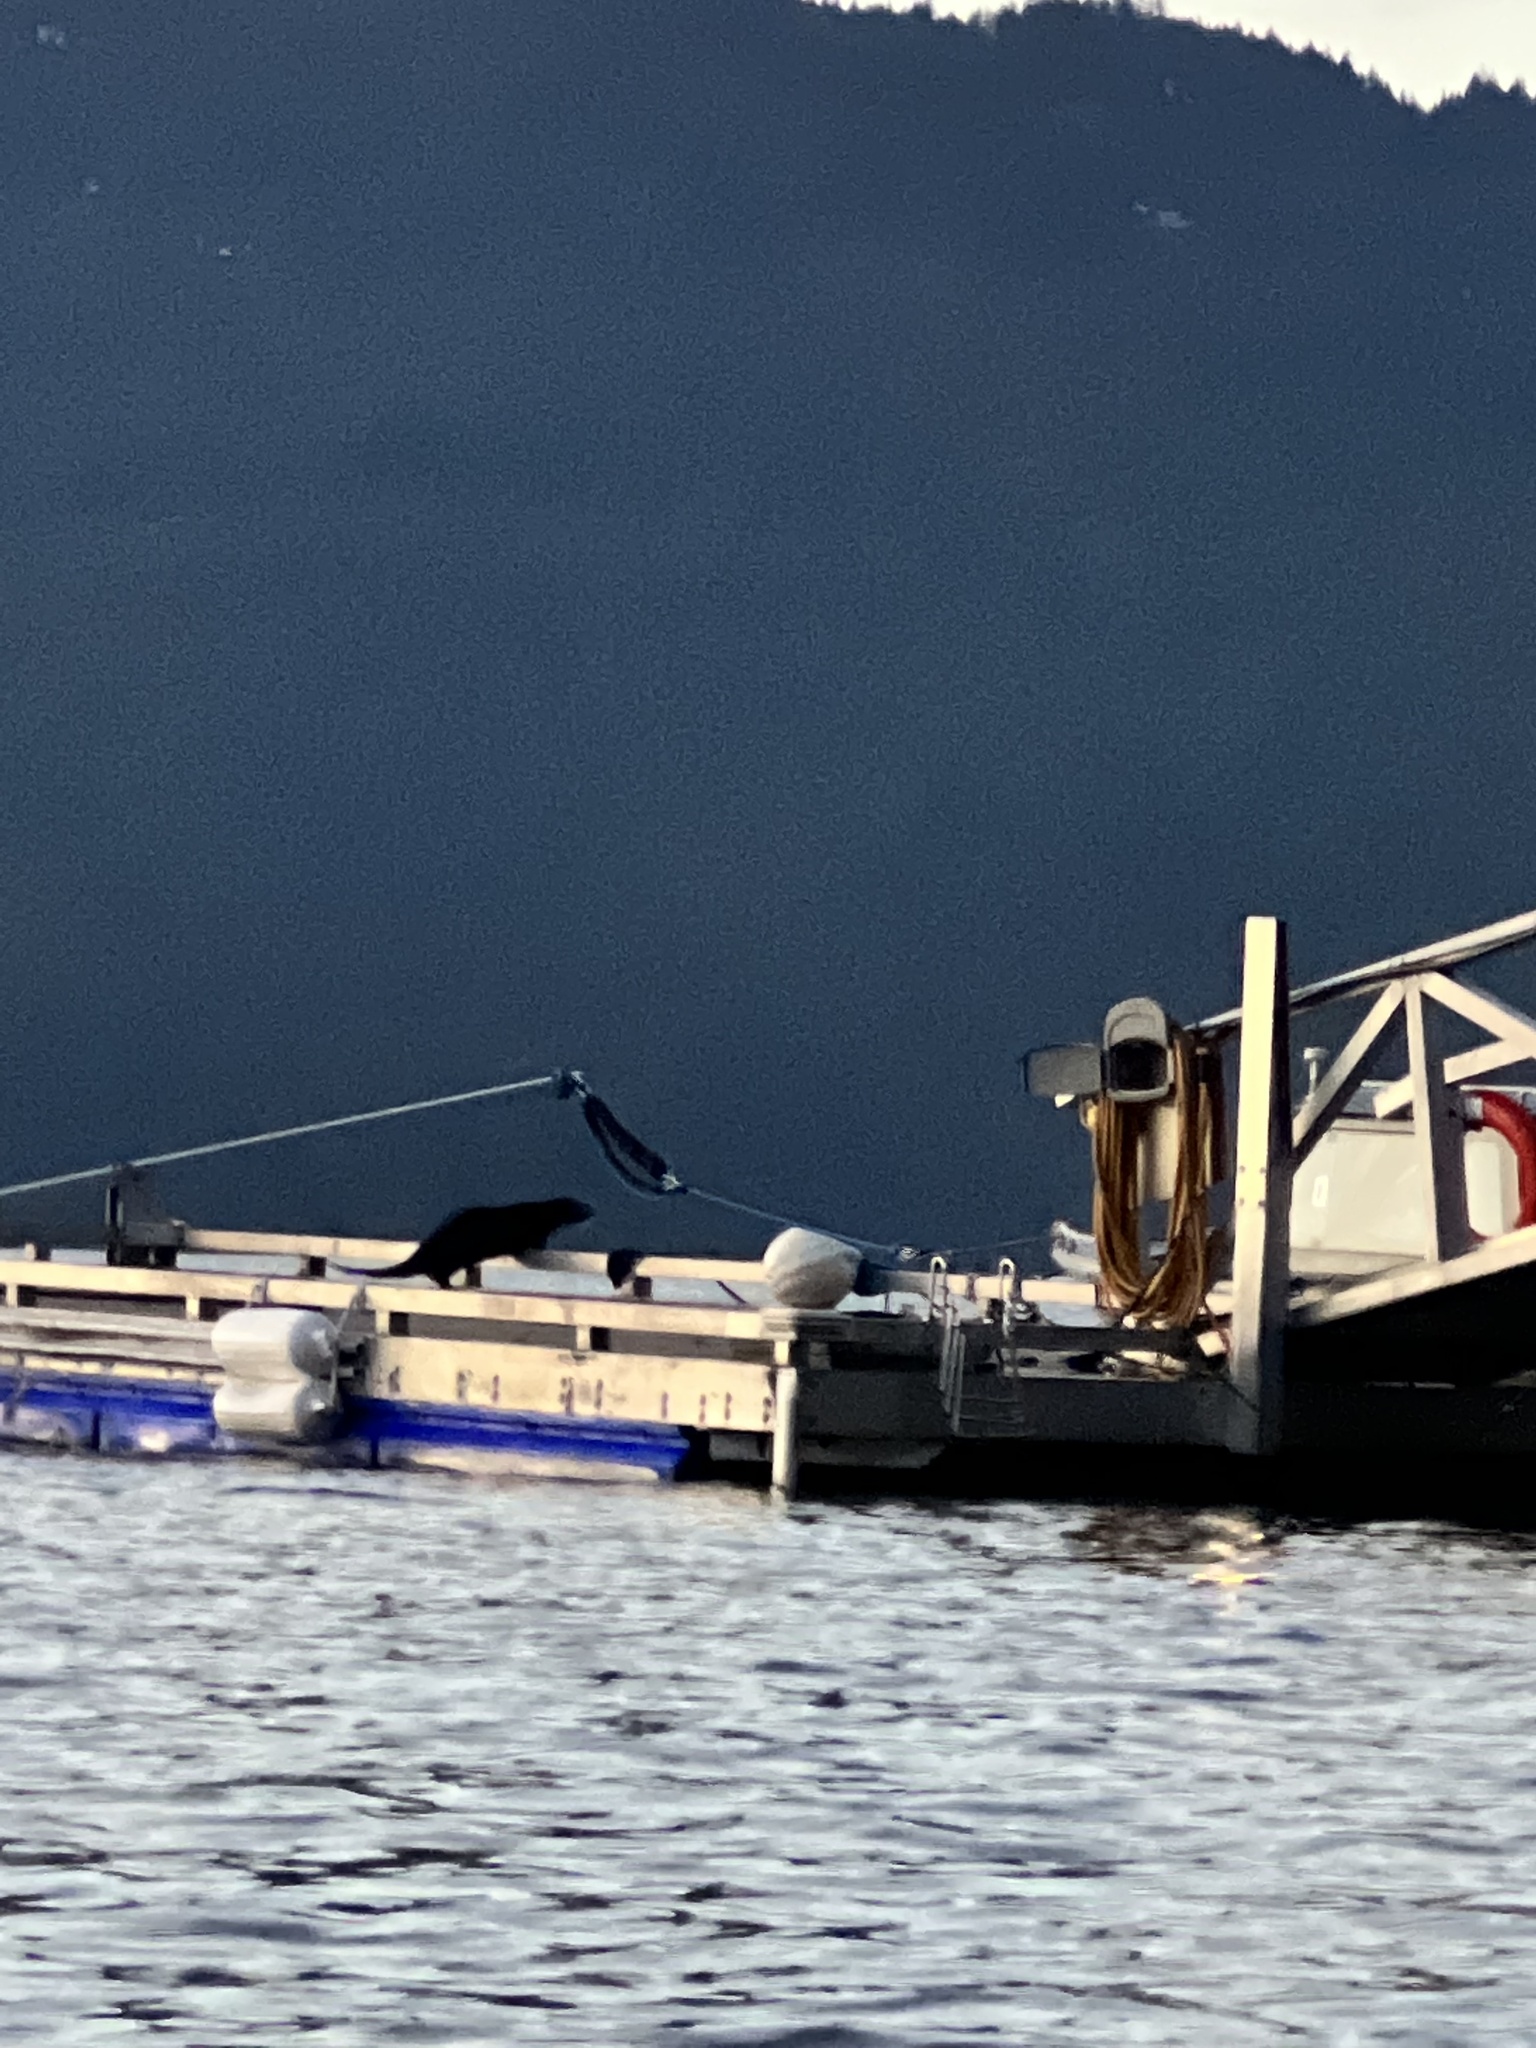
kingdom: Animalia
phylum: Chordata
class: Mammalia
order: Carnivora
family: Mustelidae
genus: Lontra
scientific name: Lontra canadensis
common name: North american river otter
